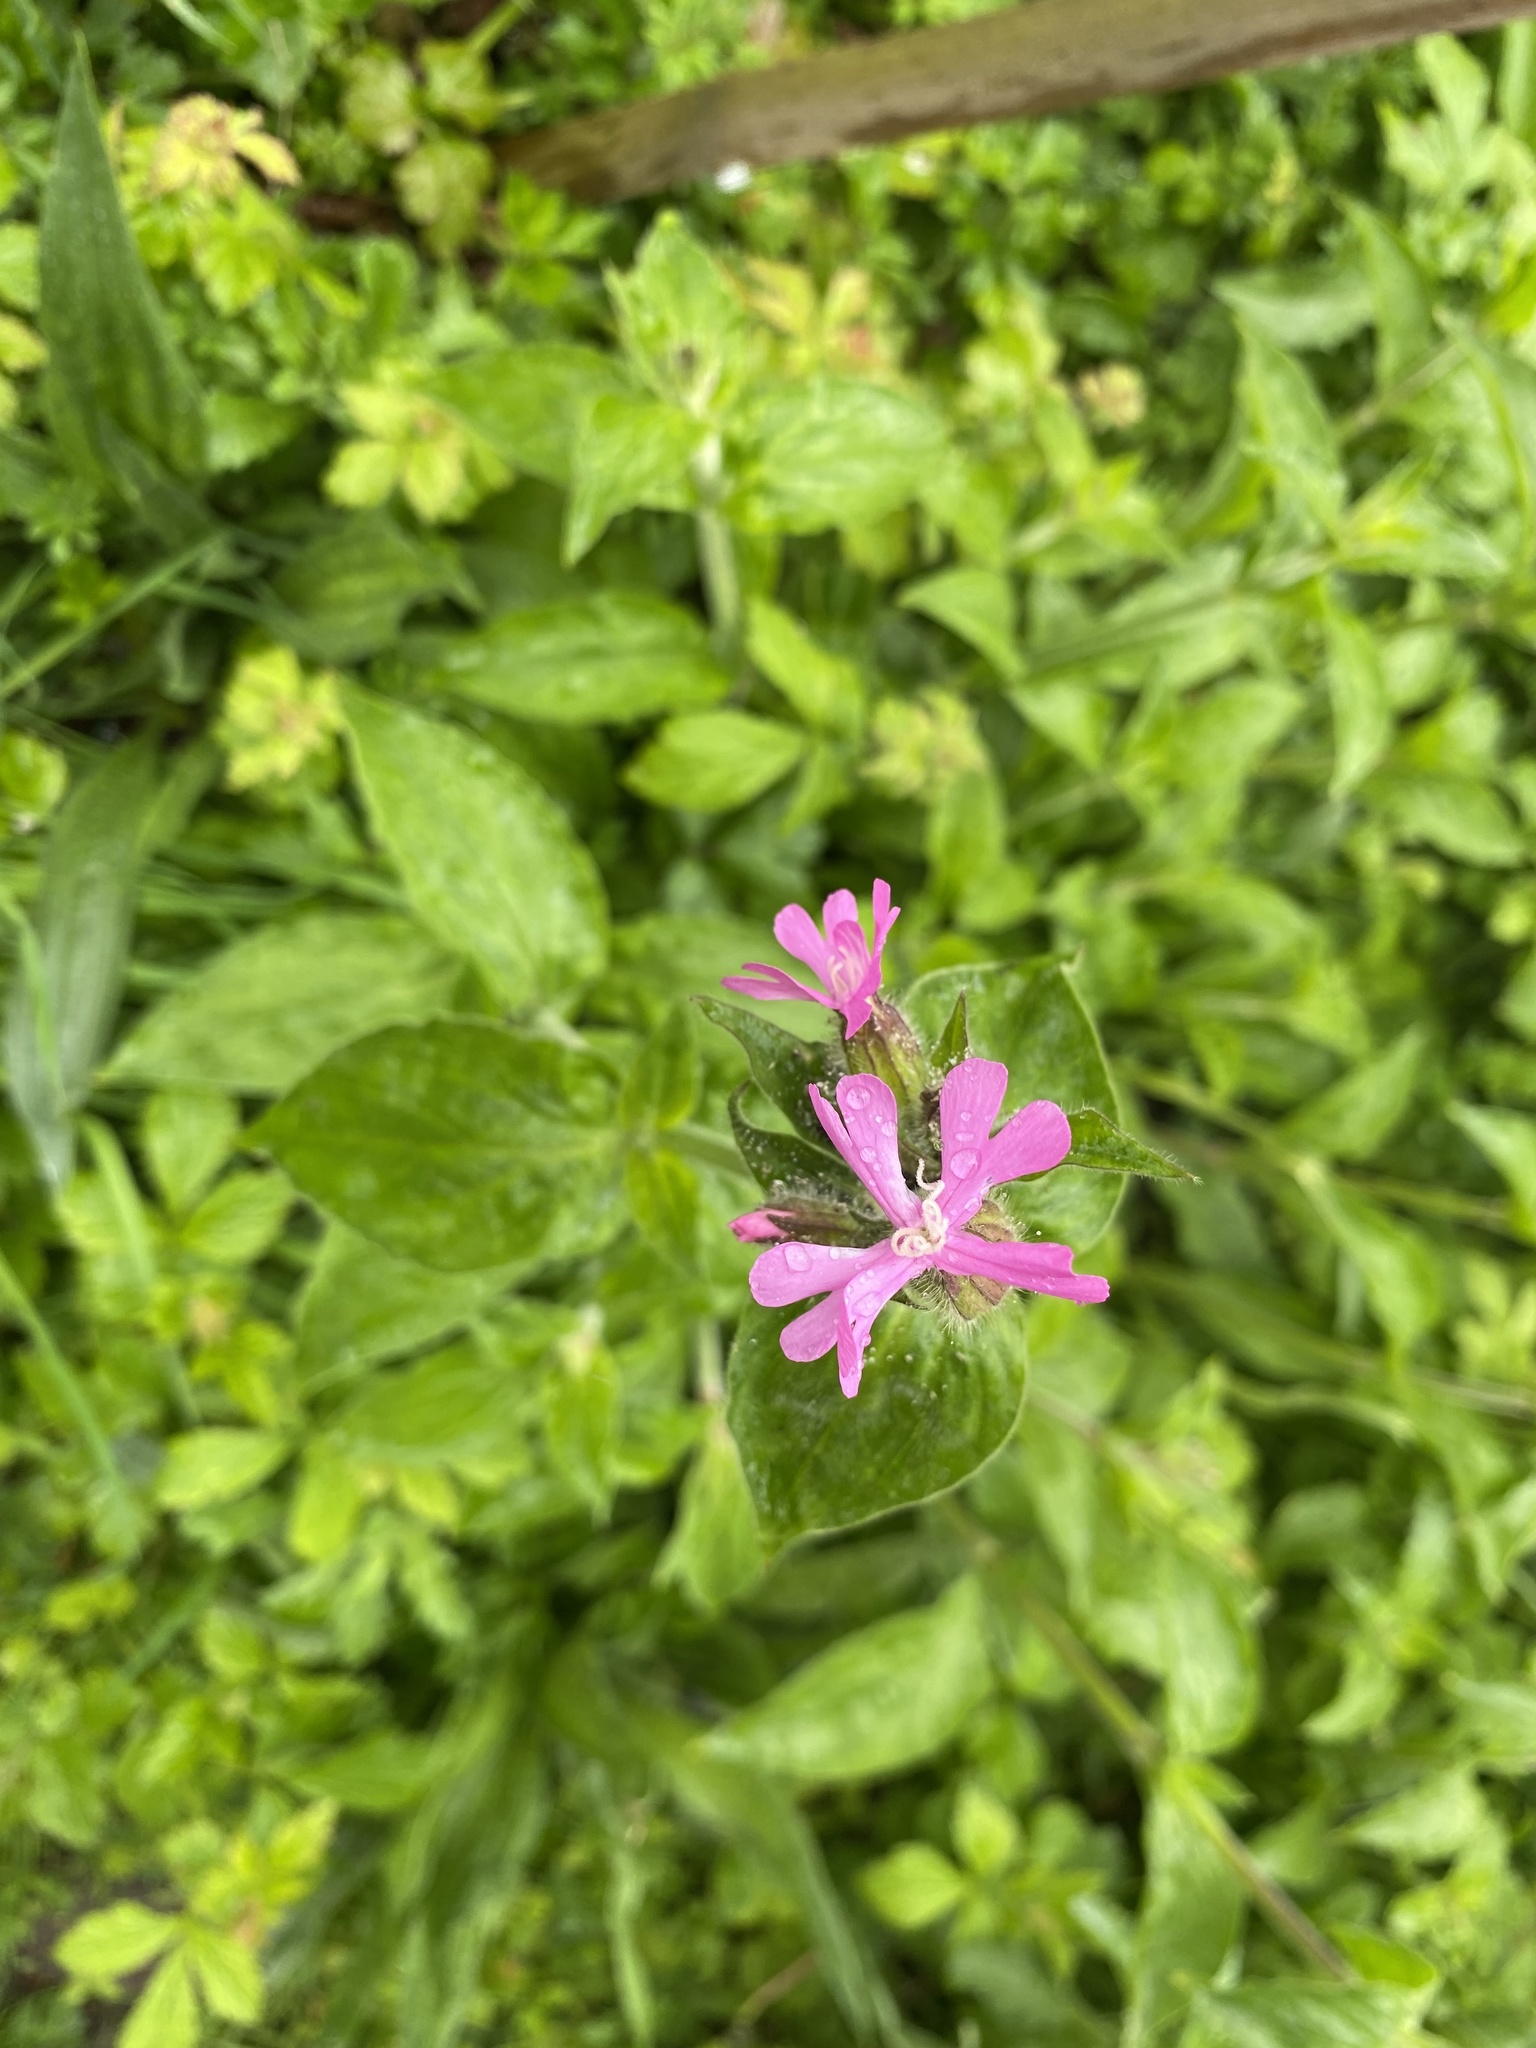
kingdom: Plantae
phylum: Tracheophyta
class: Magnoliopsida
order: Caryophyllales
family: Caryophyllaceae
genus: Silene
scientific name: Silene dioica
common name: Red campion
